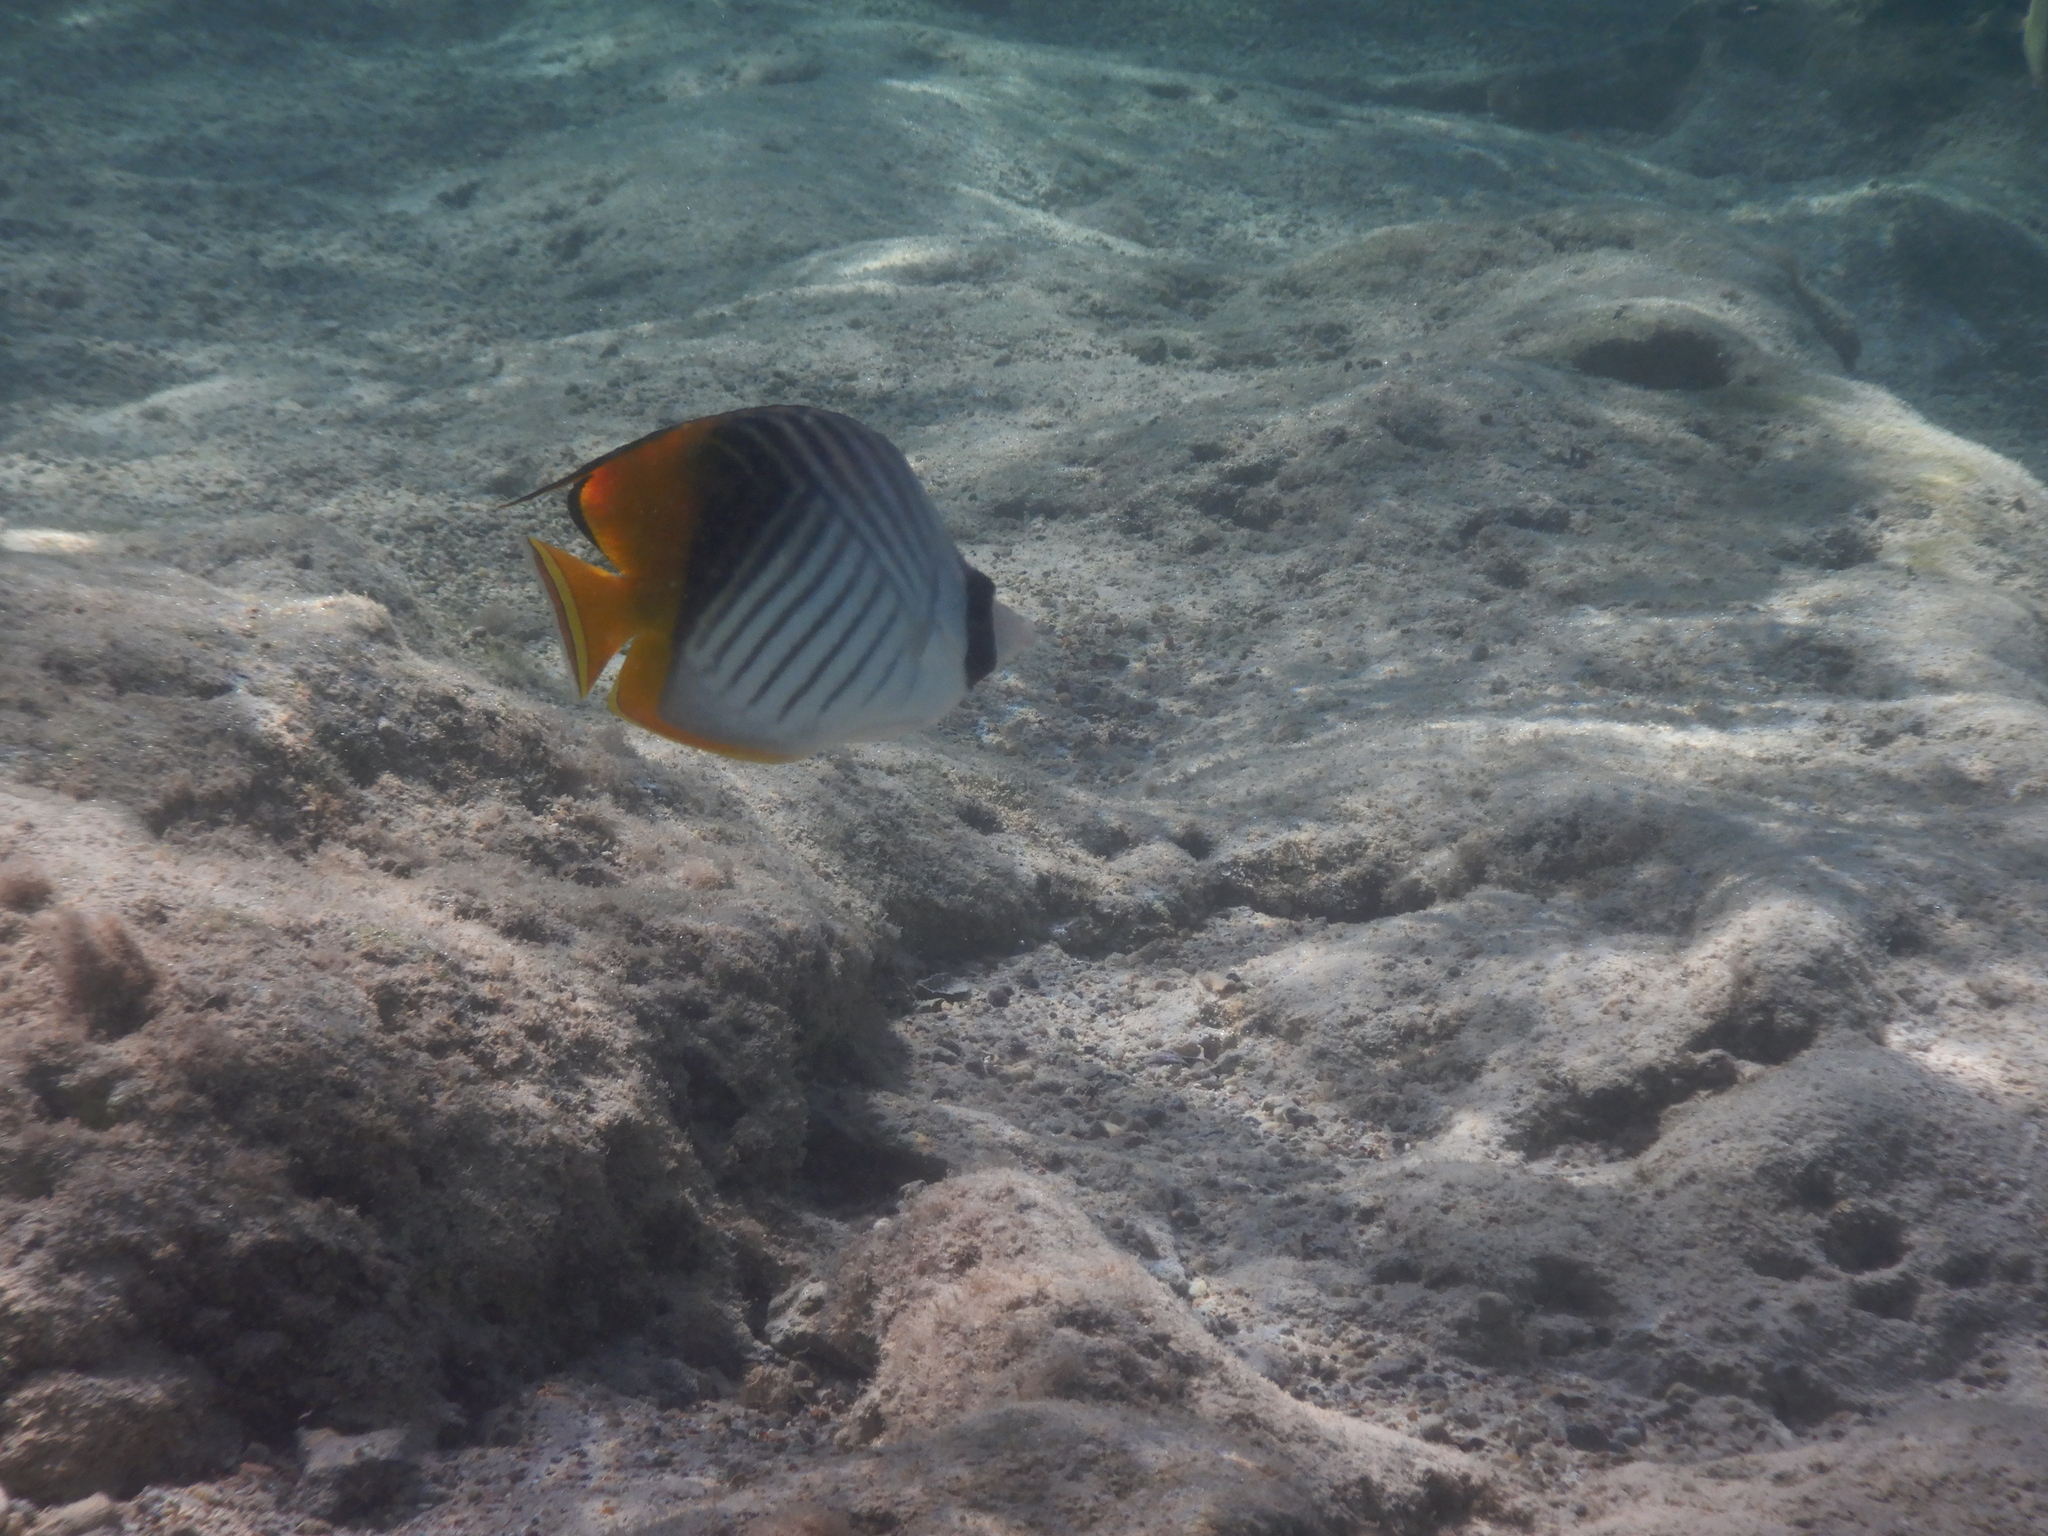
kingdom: Animalia
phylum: Chordata
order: Perciformes
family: Chaetodontidae
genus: Chaetodon
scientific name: Chaetodon auriga
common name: Threadfin butterflyfish
